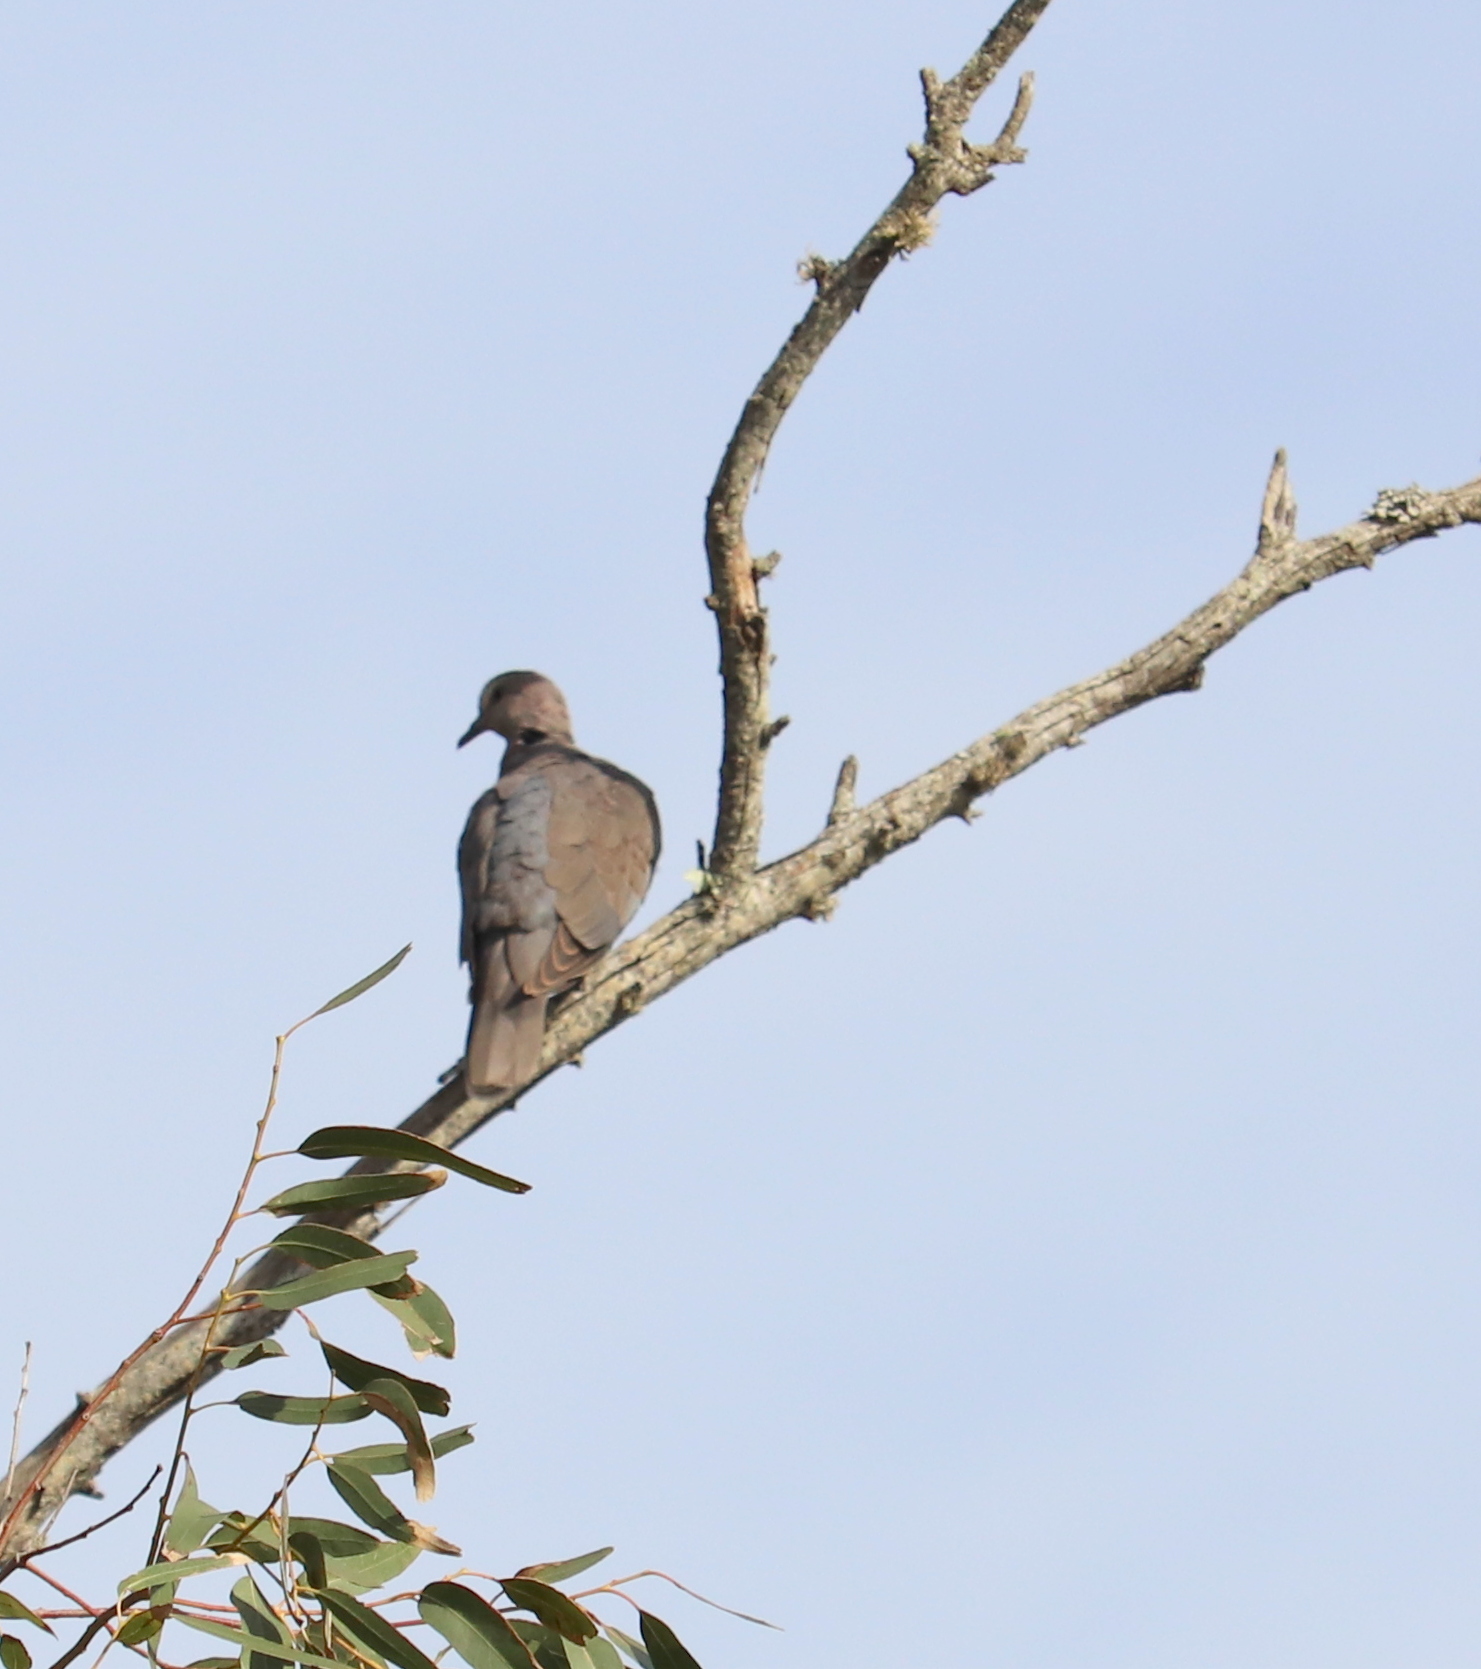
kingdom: Animalia
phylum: Chordata
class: Aves
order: Columbiformes
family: Columbidae
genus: Streptopelia
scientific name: Streptopelia semitorquata
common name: Red-eyed dove
